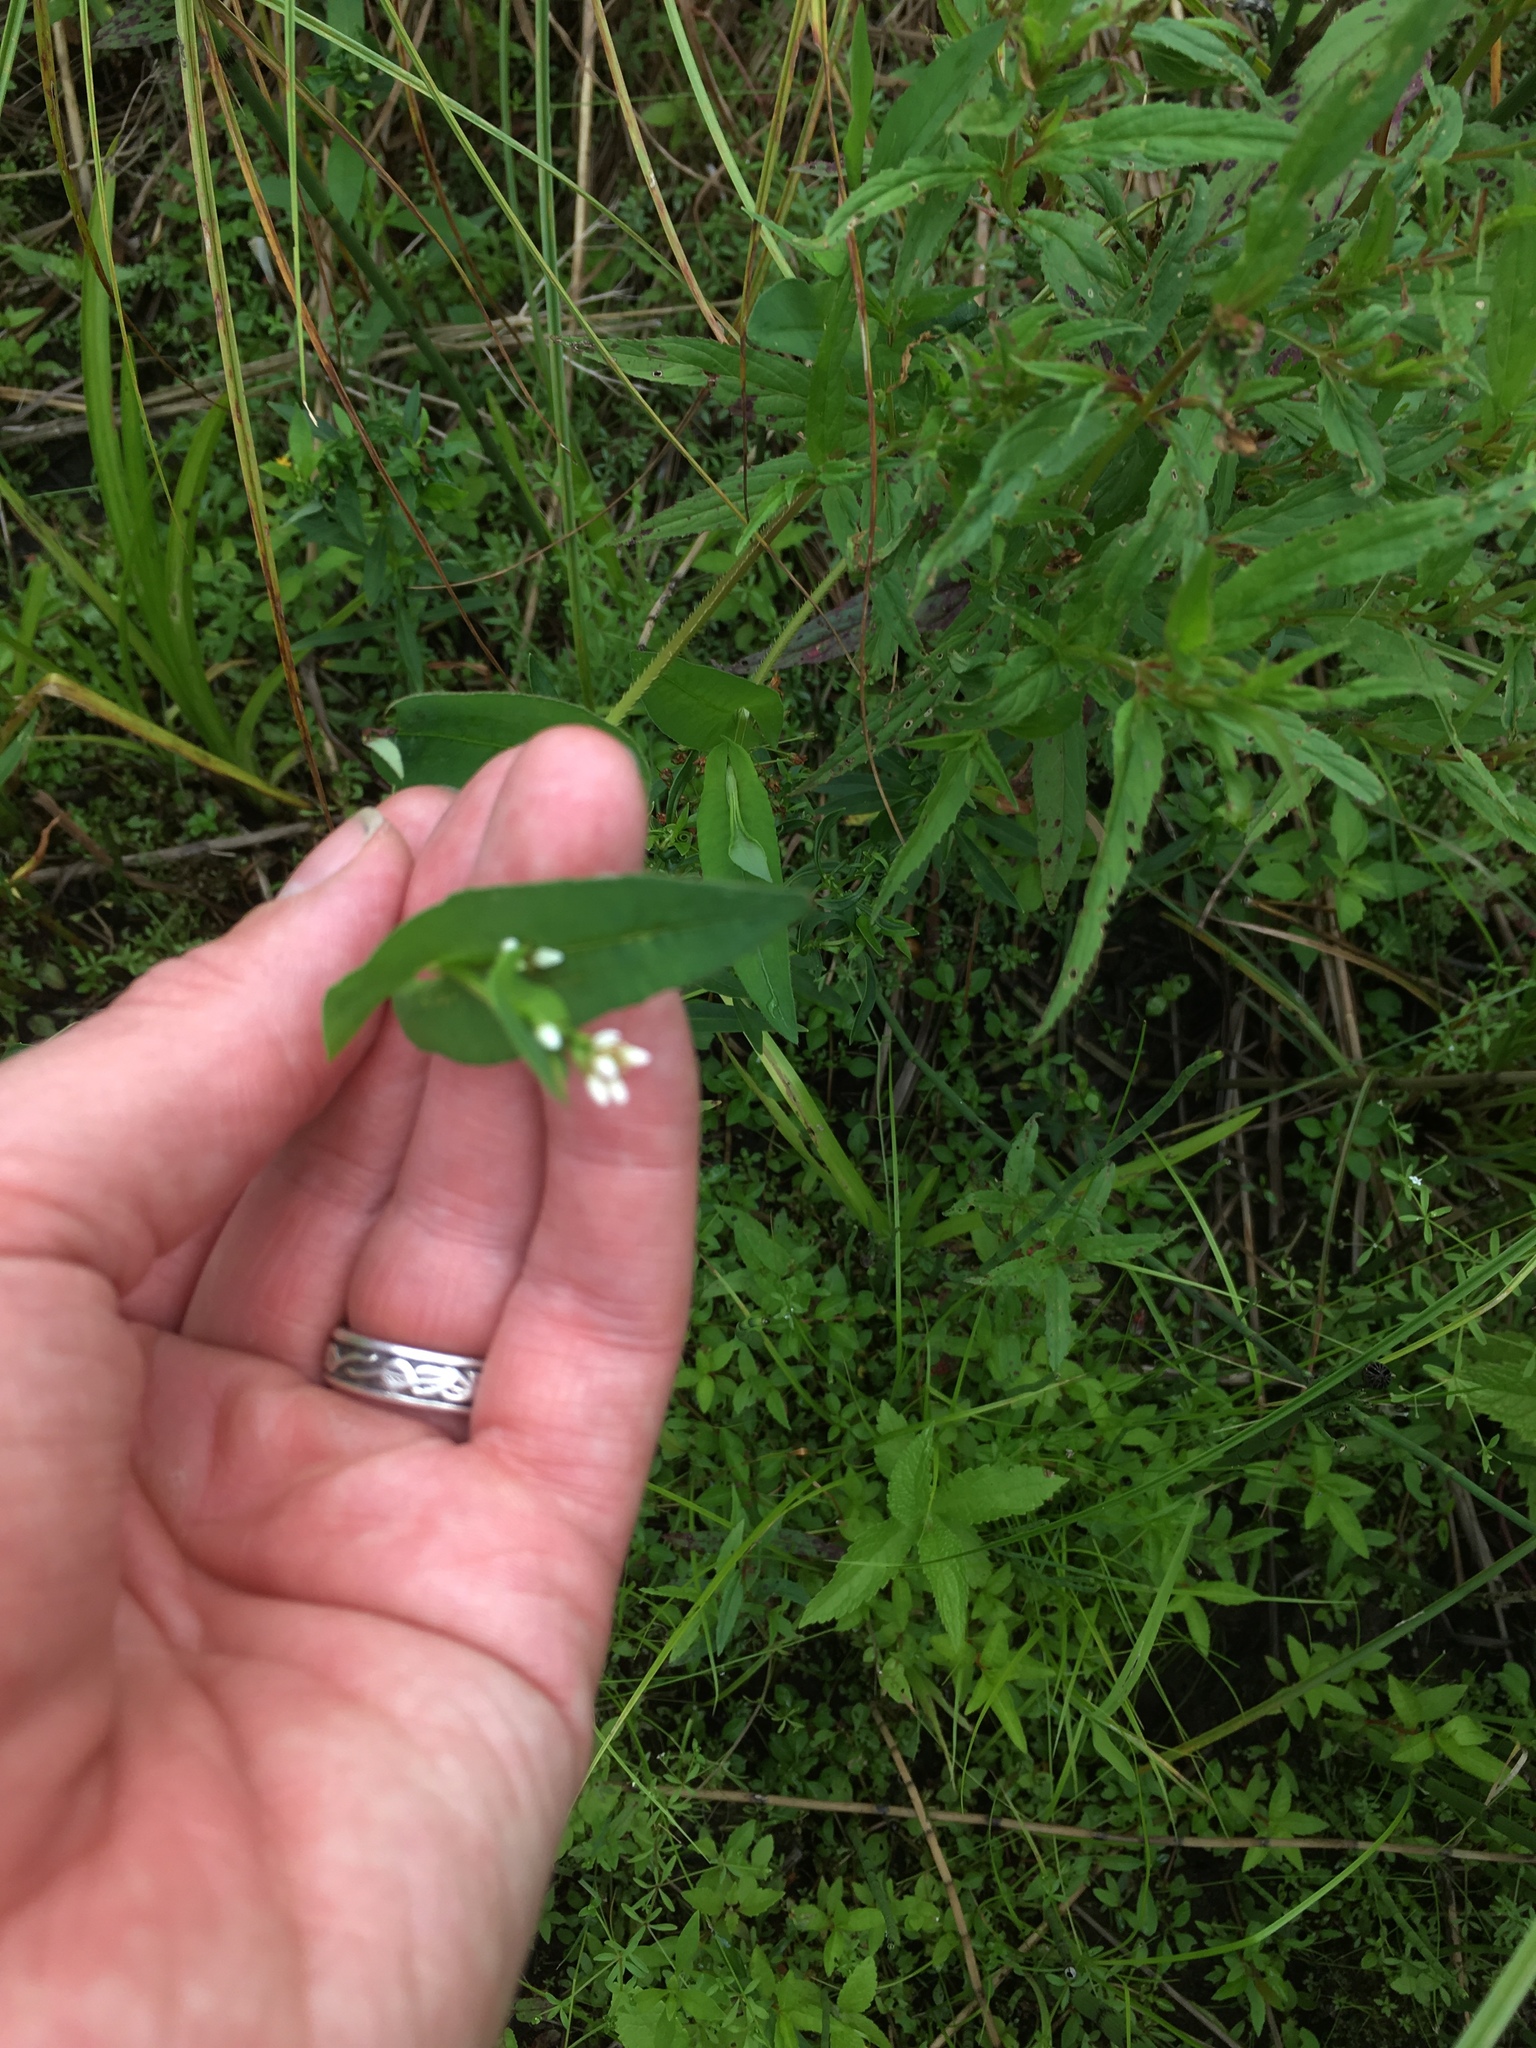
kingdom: Plantae
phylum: Tracheophyta
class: Magnoliopsida
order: Caryophyllales
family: Polygonaceae
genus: Persicaria
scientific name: Persicaria sagittata
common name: American tearthumb
